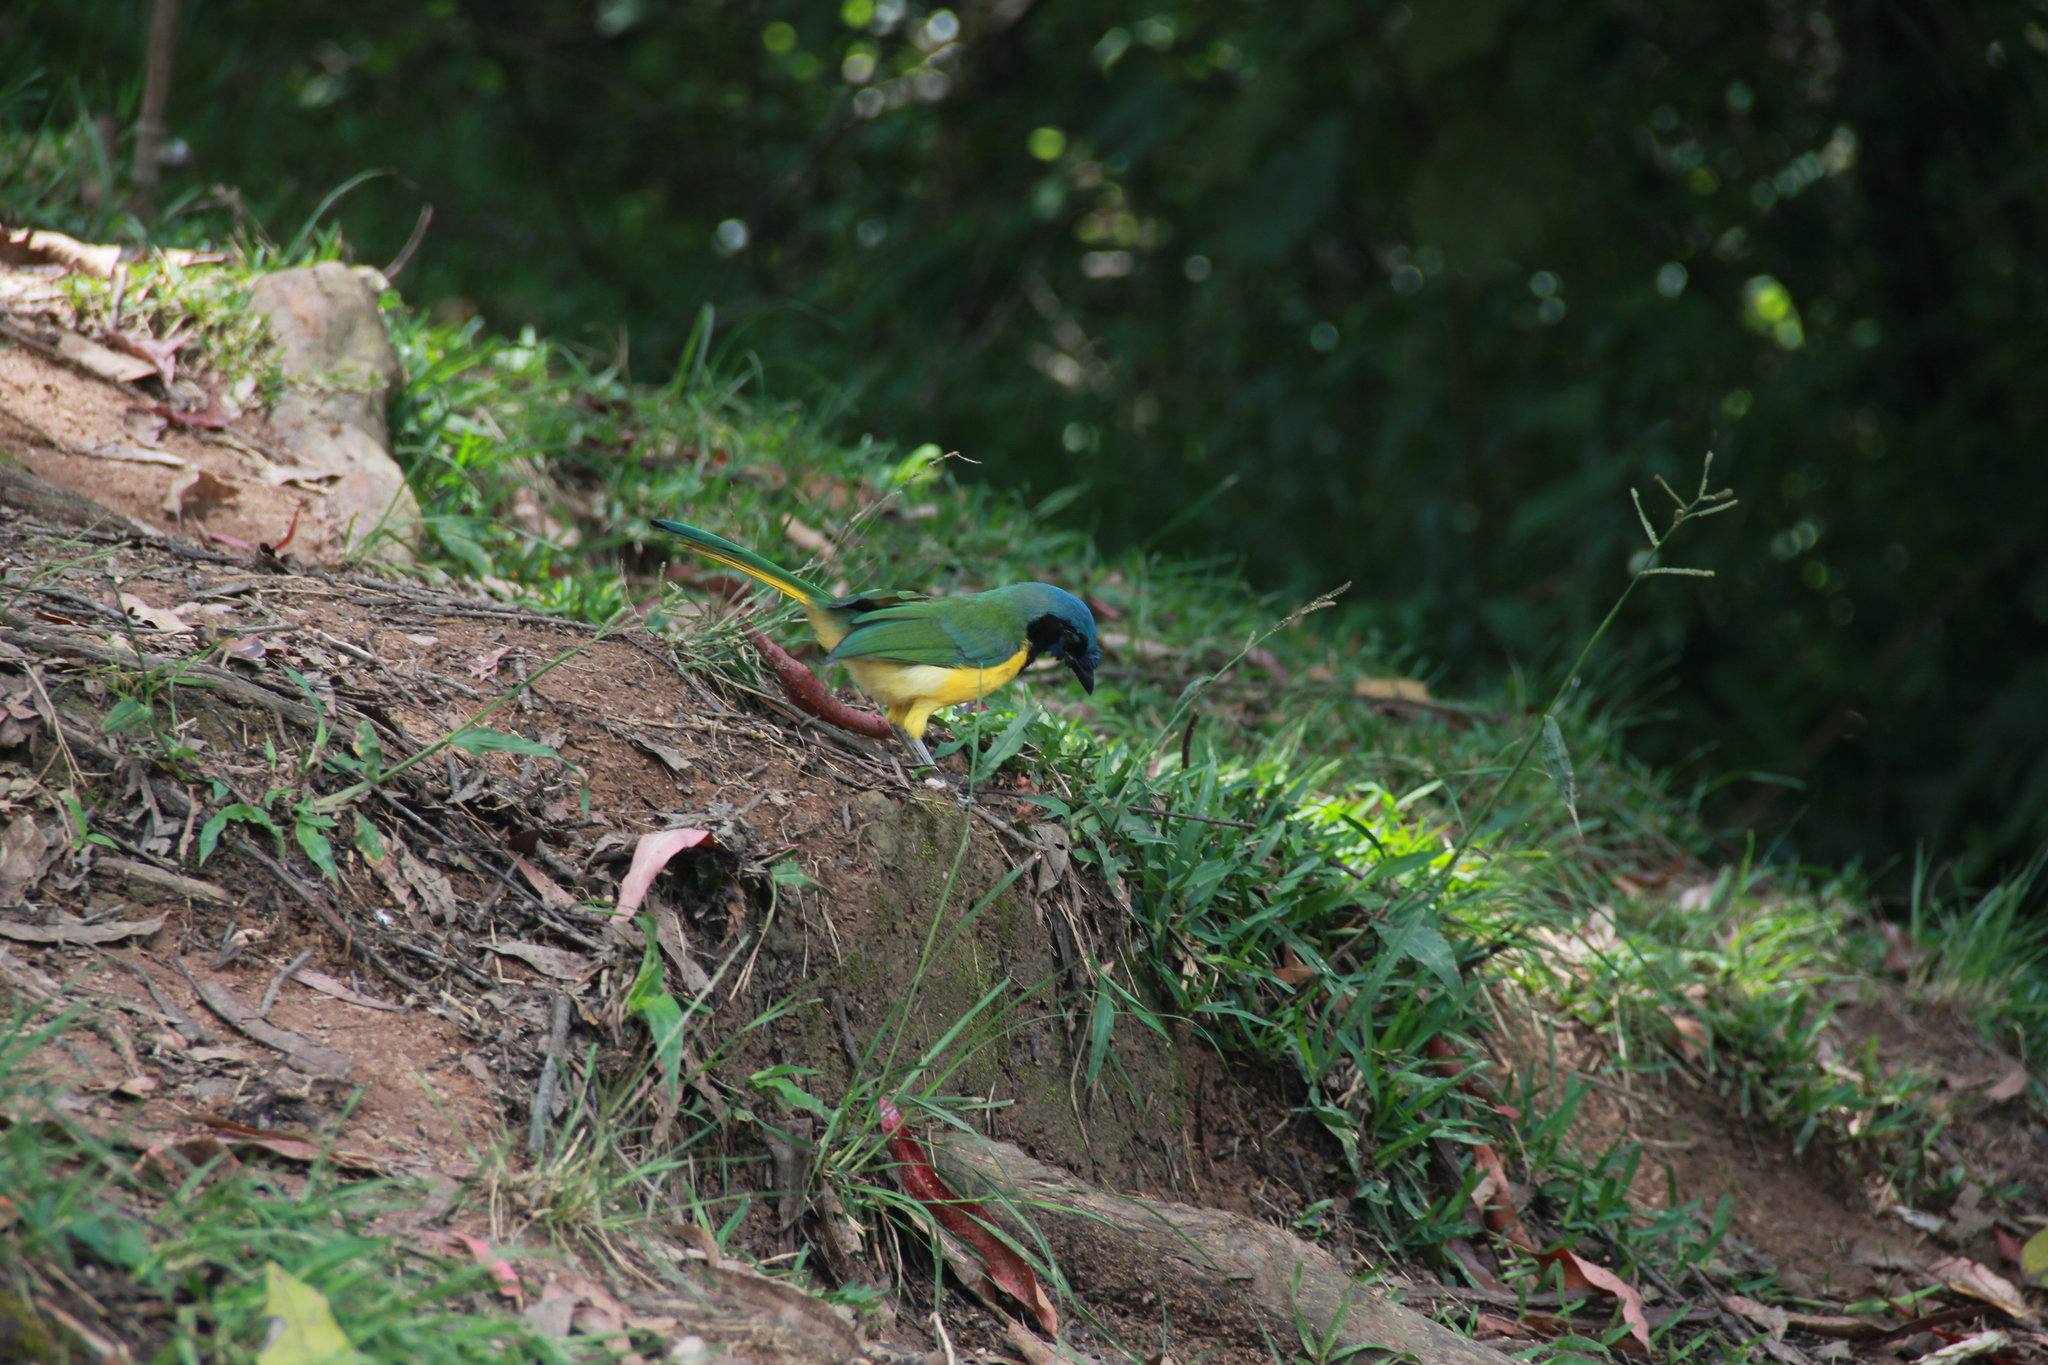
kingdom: Animalia
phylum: Chordata
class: Aves
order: Passeriformes
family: Corvidae
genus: Cyanocorax
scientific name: Cyanocorax yncas
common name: Green jay
